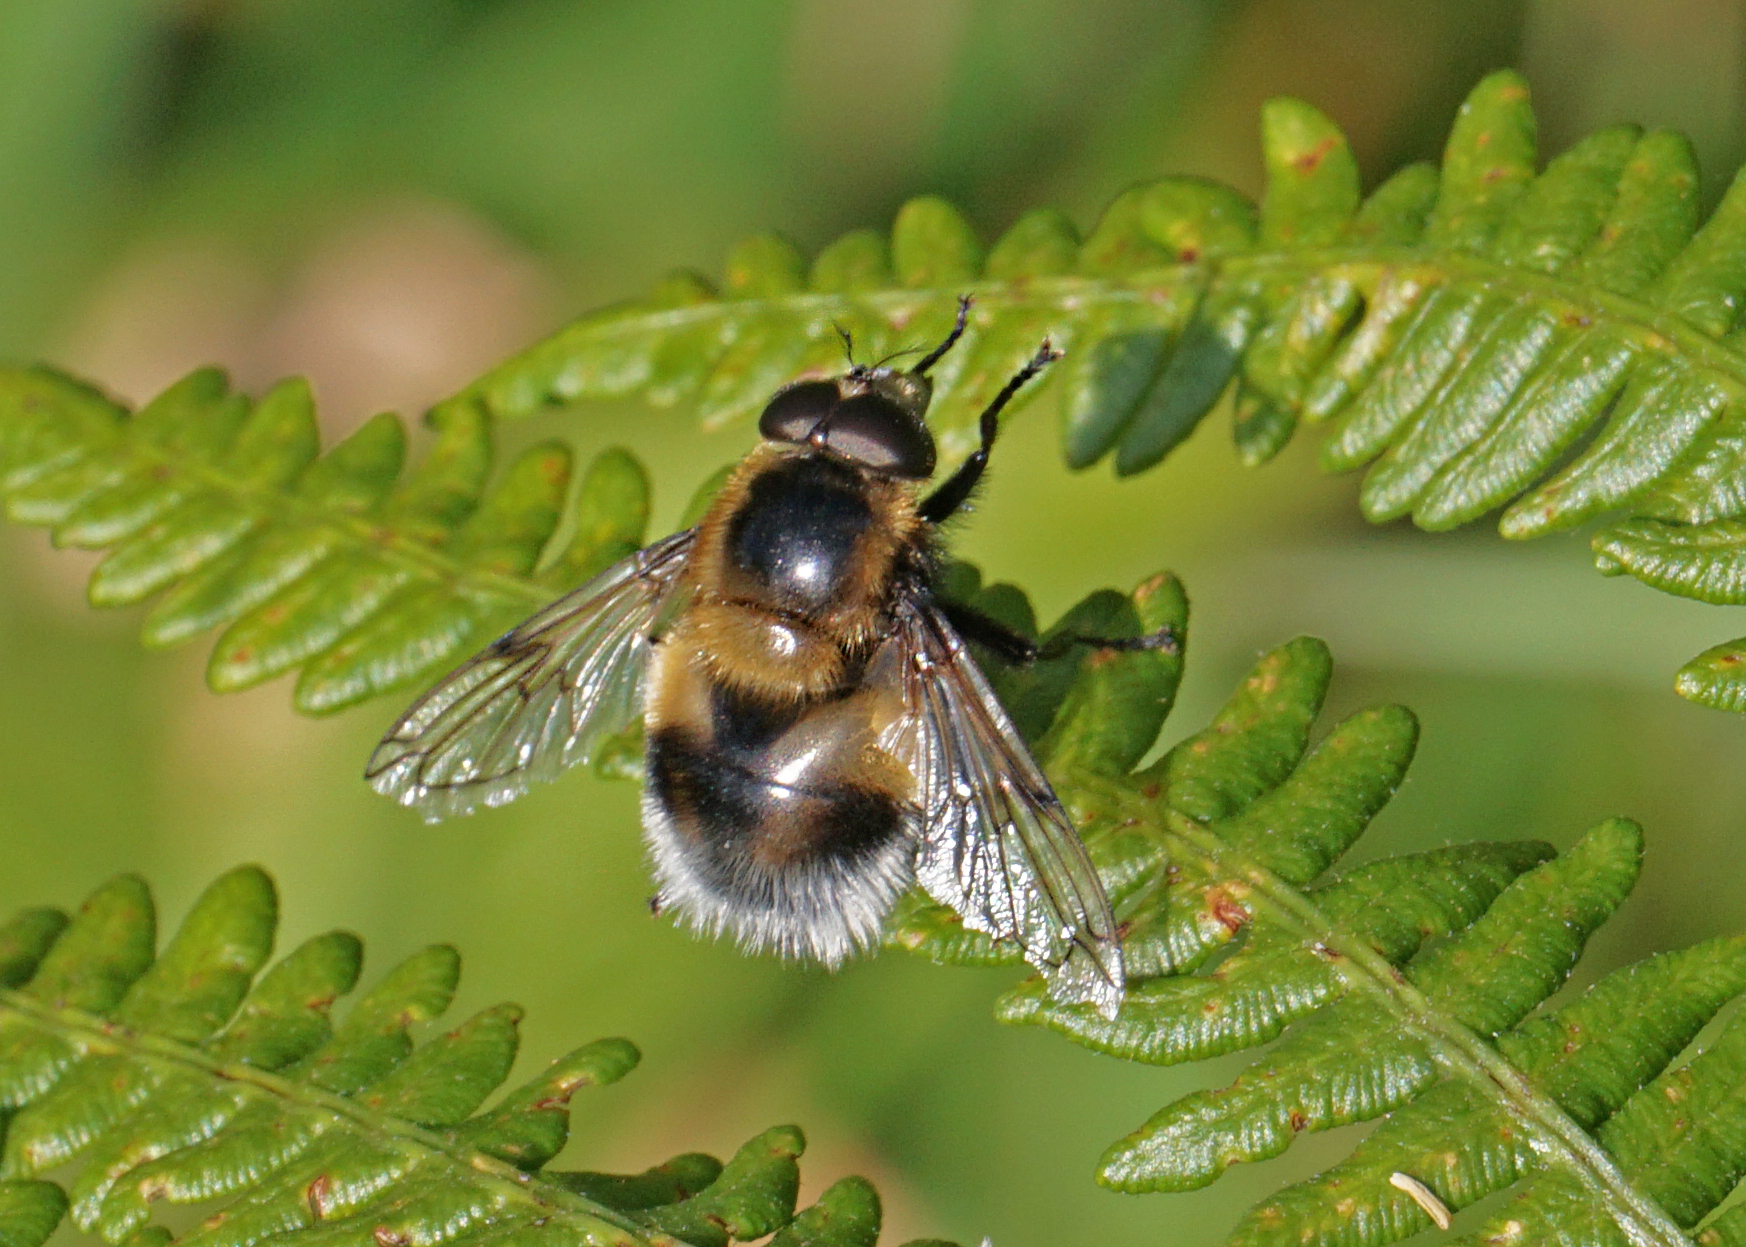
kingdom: Animalia
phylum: Arthropoda
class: Insecta
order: Diptera
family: Syrphidae
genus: Volucella
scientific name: Volucella bombylans
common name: Bumble bee hover fly
